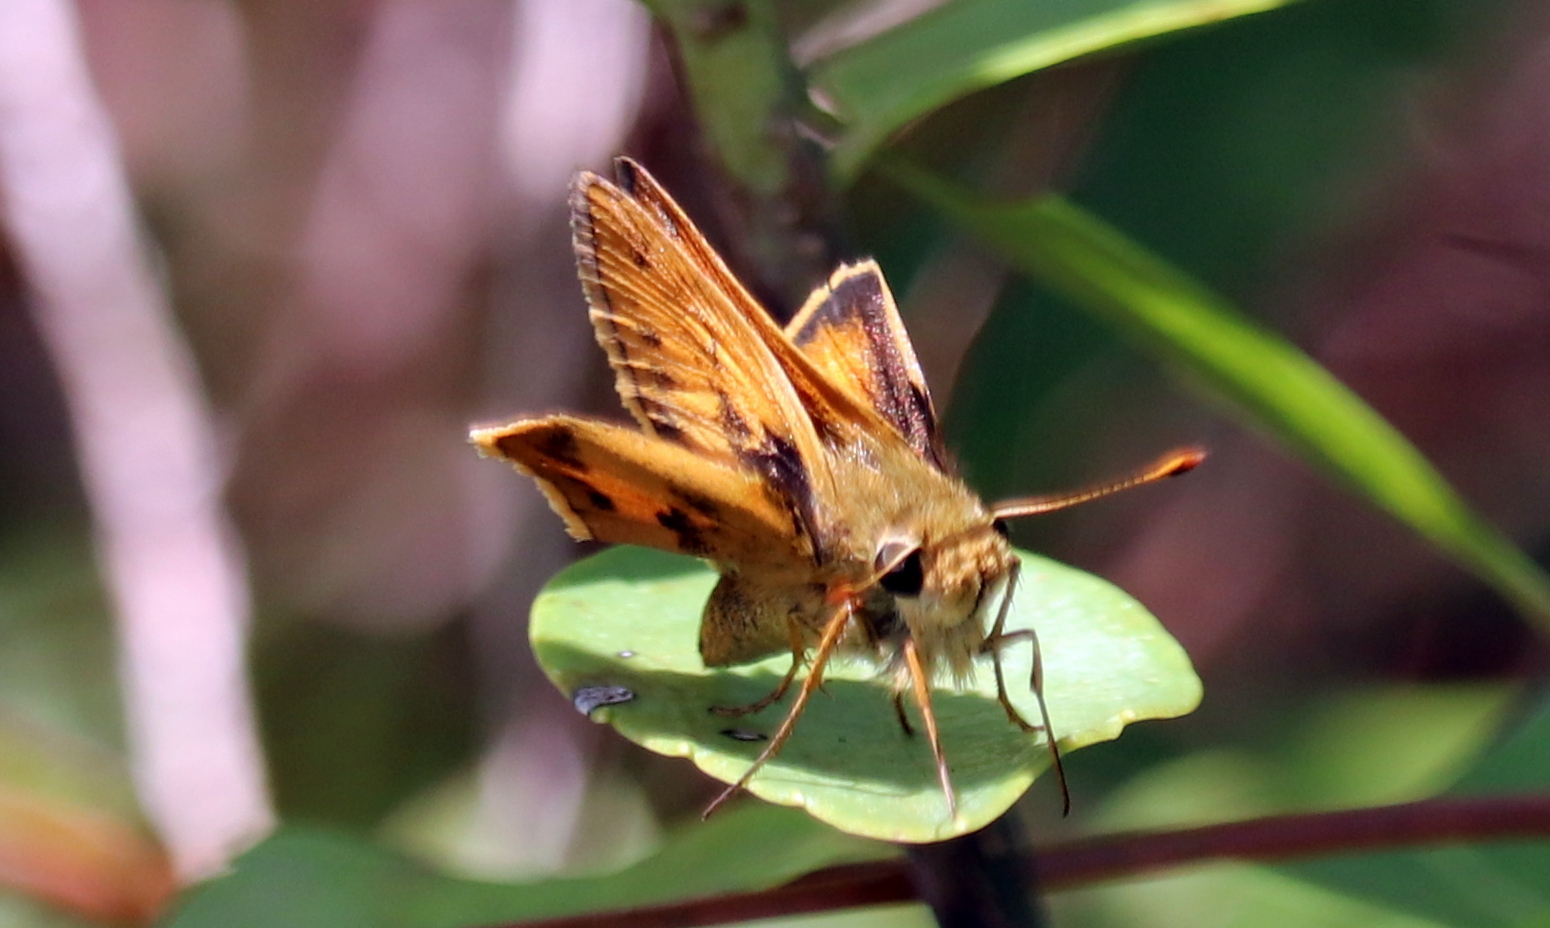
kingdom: Animalia
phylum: Arthropoda
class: Insecta
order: Lepidoptera
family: Hesperiidae
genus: Hylephila
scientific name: Hylephila phyleus
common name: Fiery skipper
